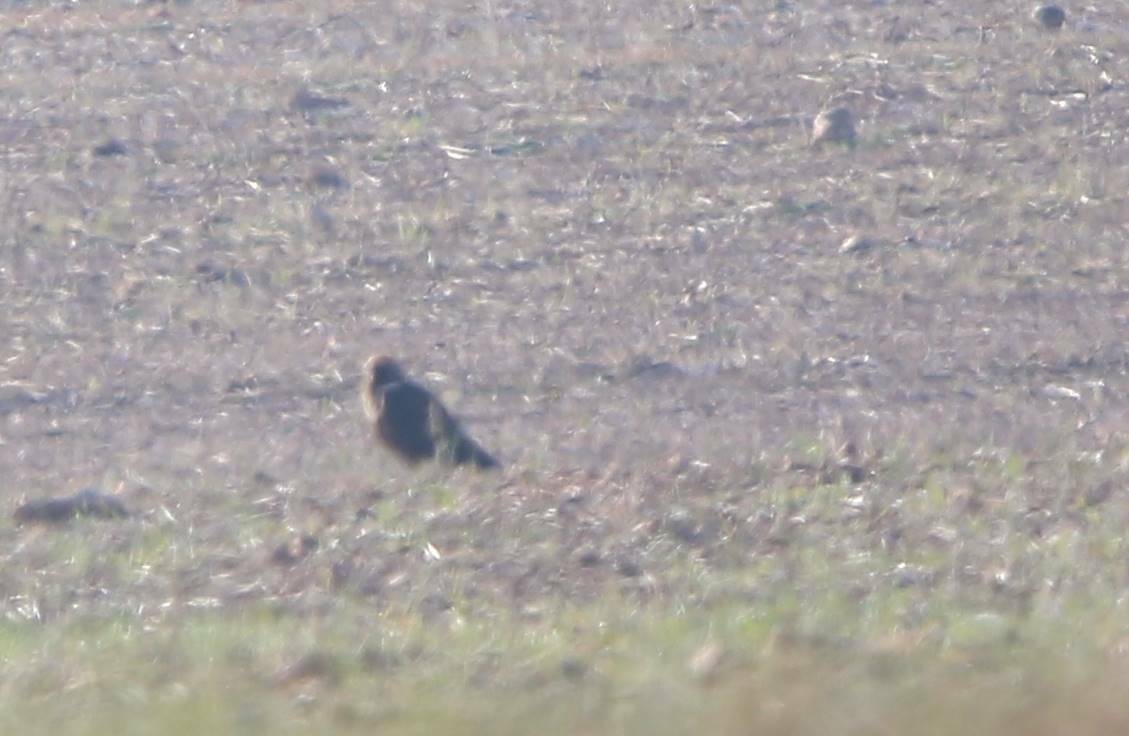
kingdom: Animalia
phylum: Chordata
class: Aves
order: Accipitriformes
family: Accipitridae
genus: Circus
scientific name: Circus aeruginosus
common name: Western marsh harrier
